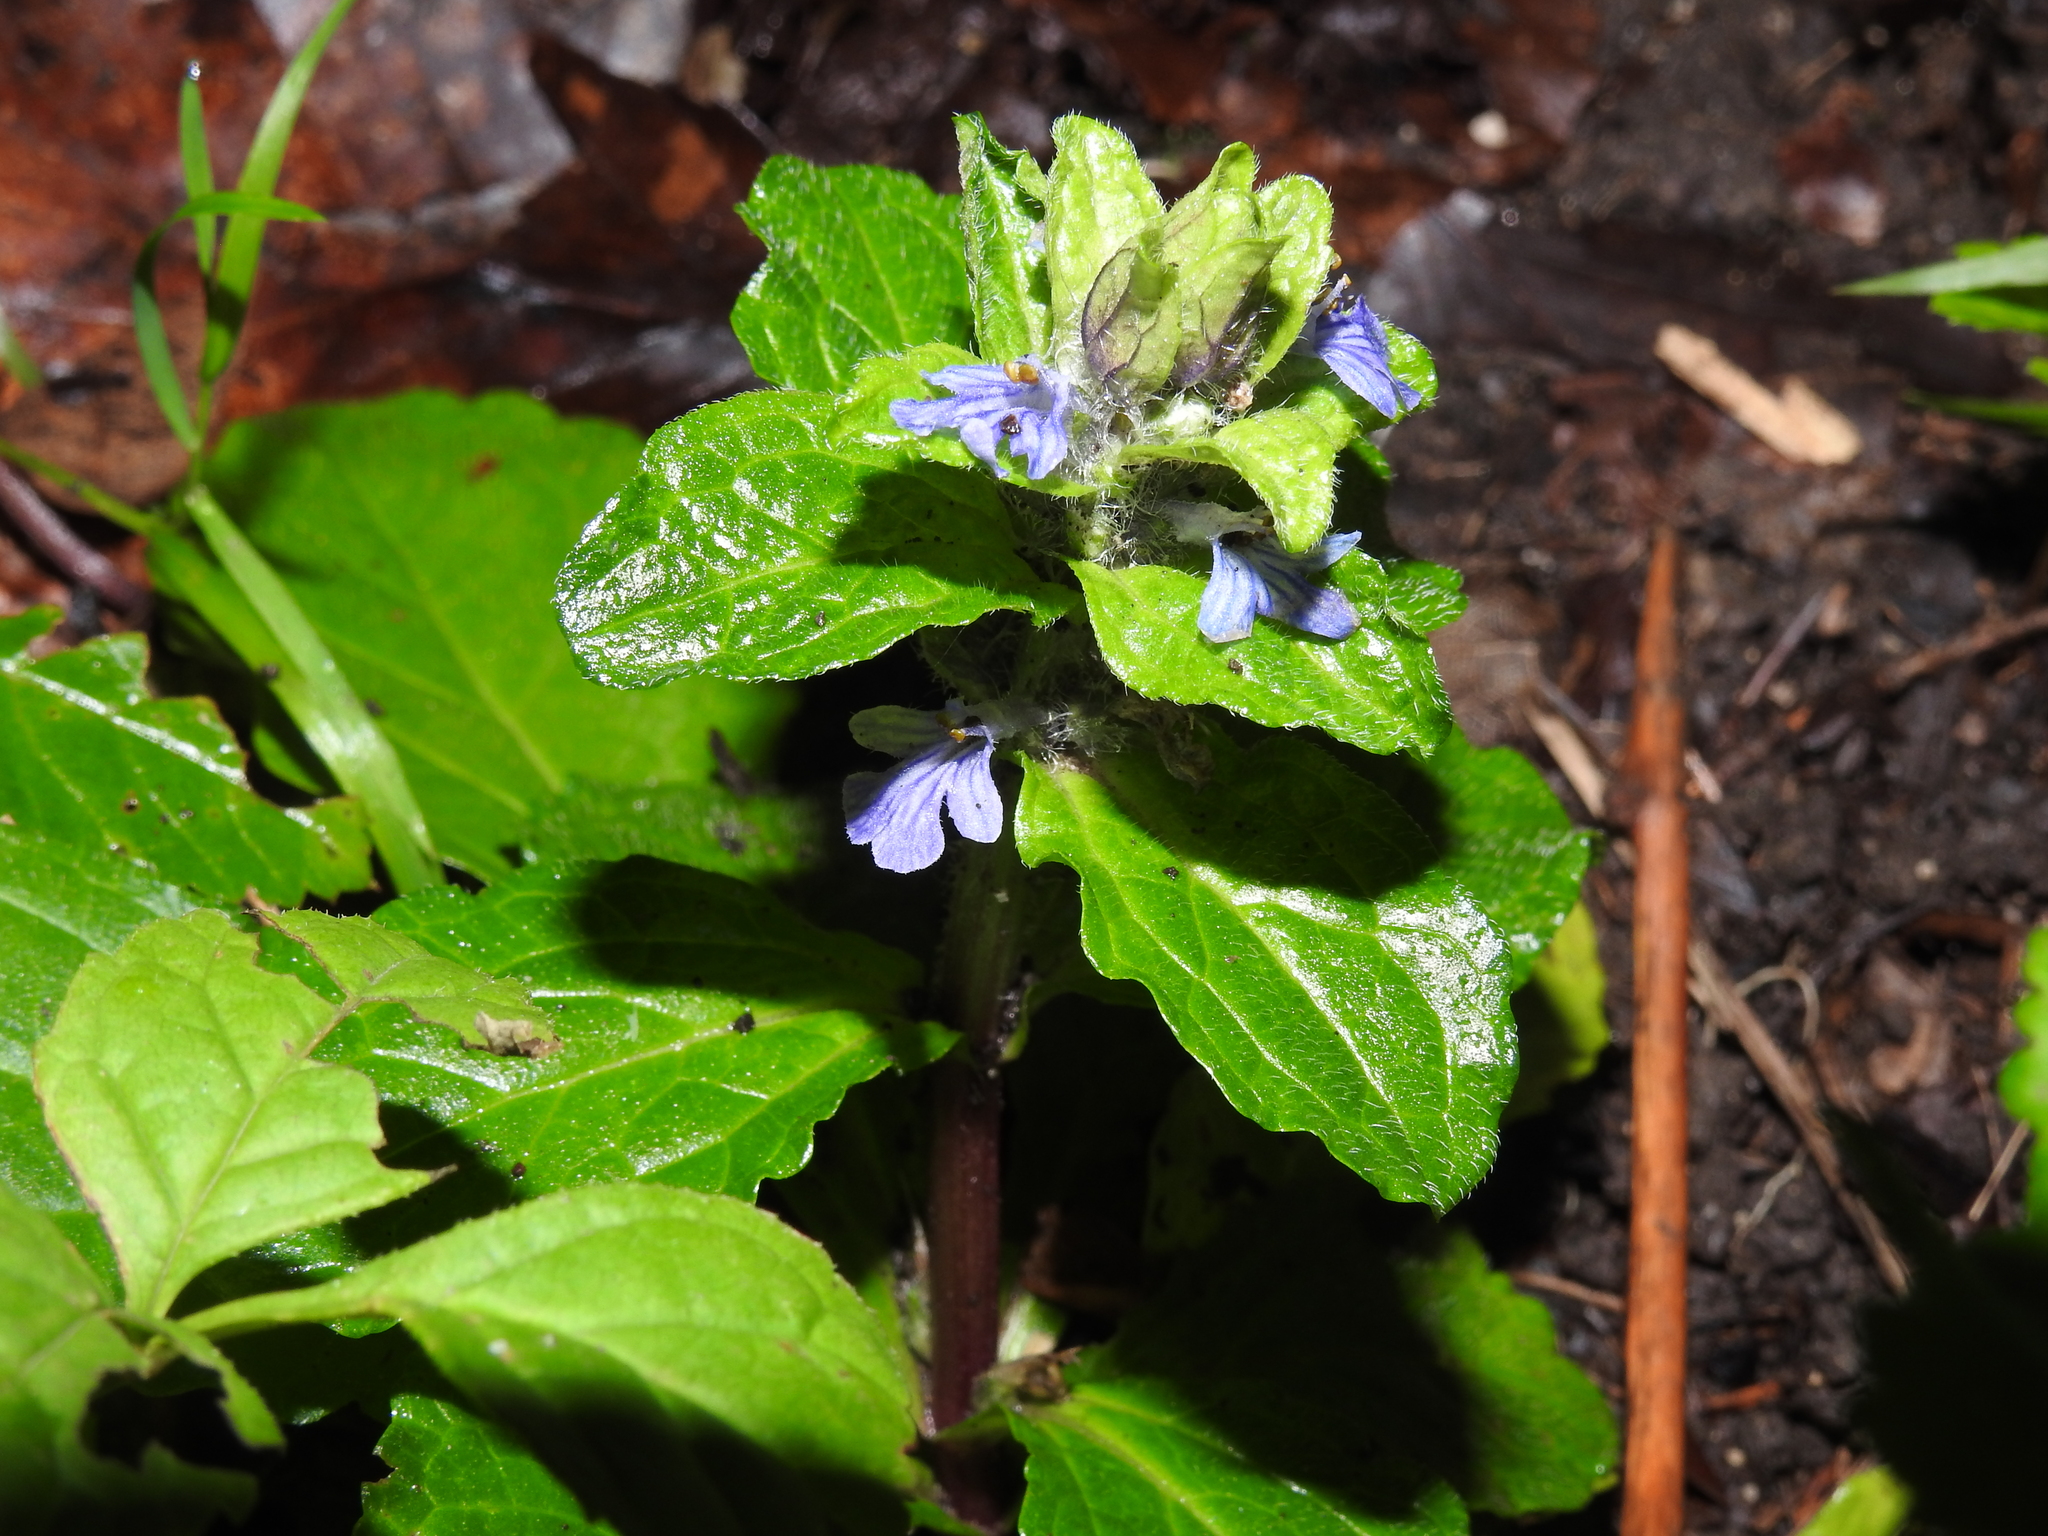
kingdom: Plantae
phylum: Tracheophyta
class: Magnoliopsida
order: Lamiales
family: Lamiaceae
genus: Ajuga
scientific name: Ajuga reptans
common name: Bugle
